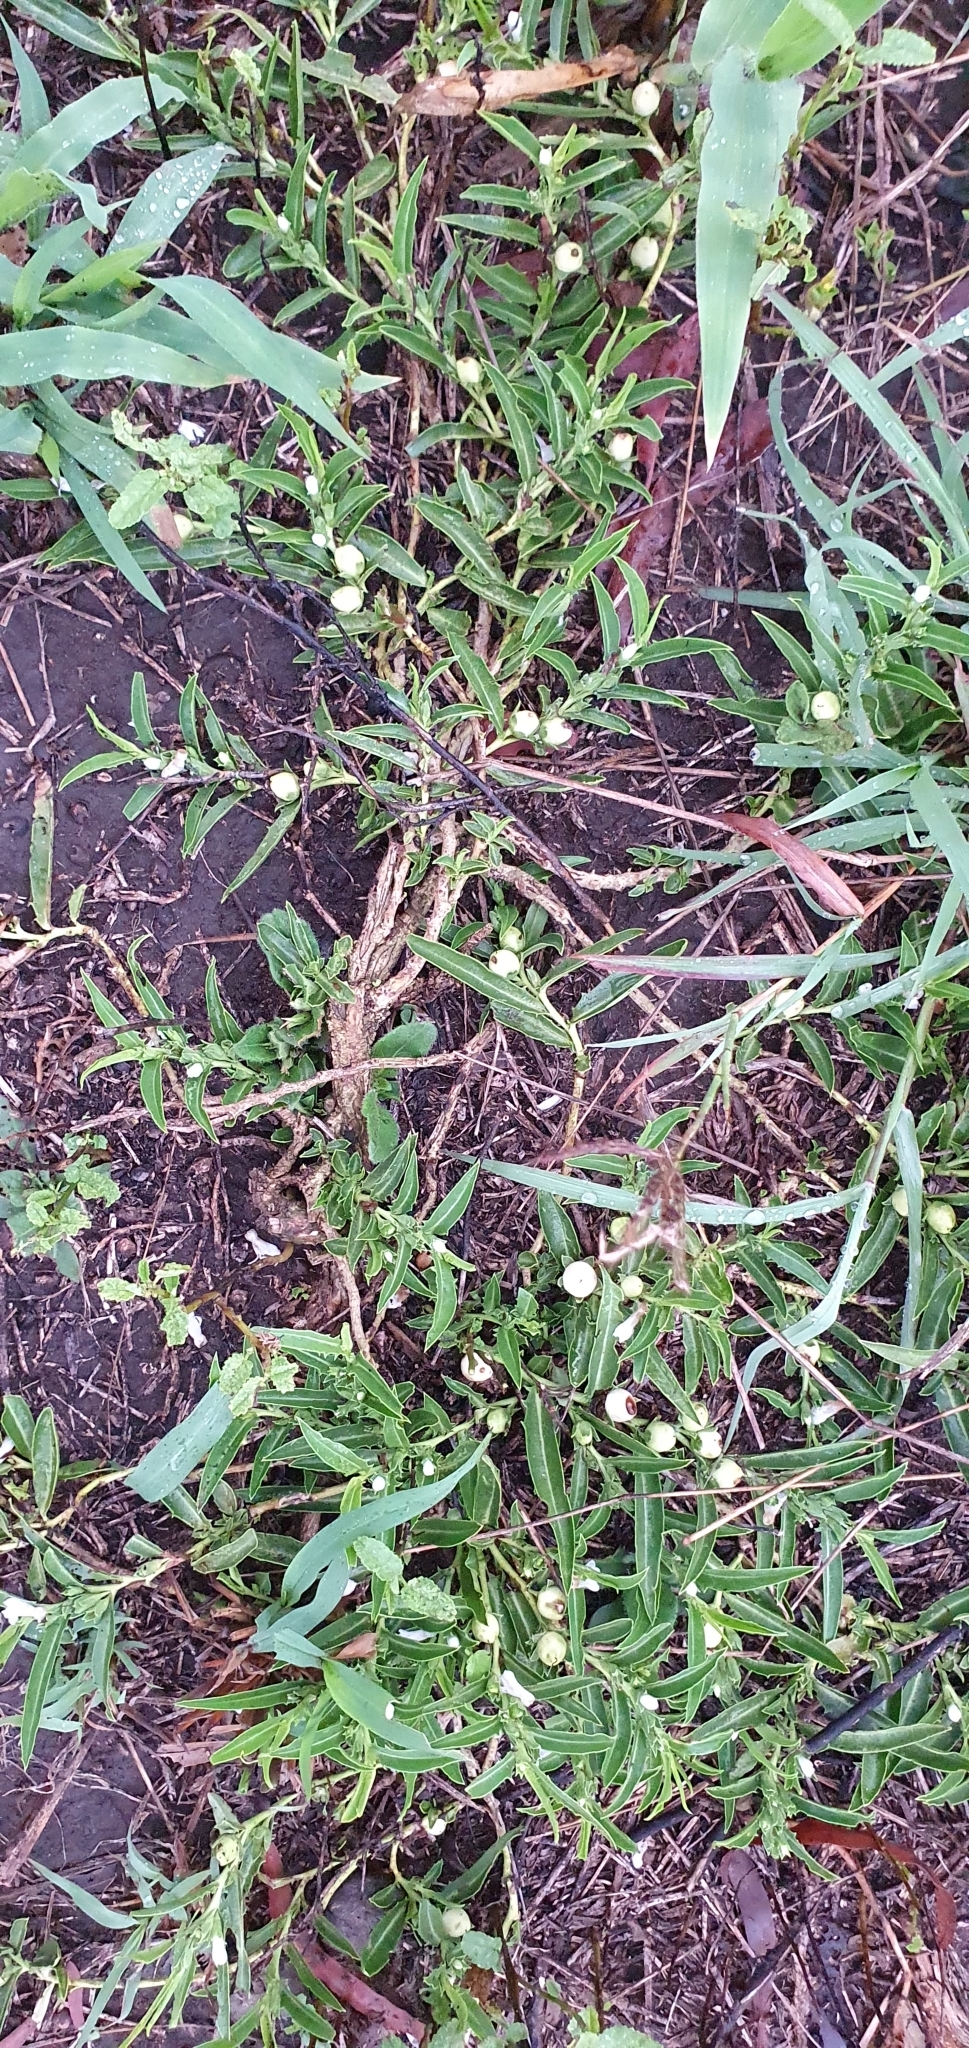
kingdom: Plantae
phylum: Tracheophyta
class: Magnoliopsida
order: Lamiales
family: Scrophulariaceae
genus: Eremophila
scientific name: Eremophila debilis
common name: Winter-apple
